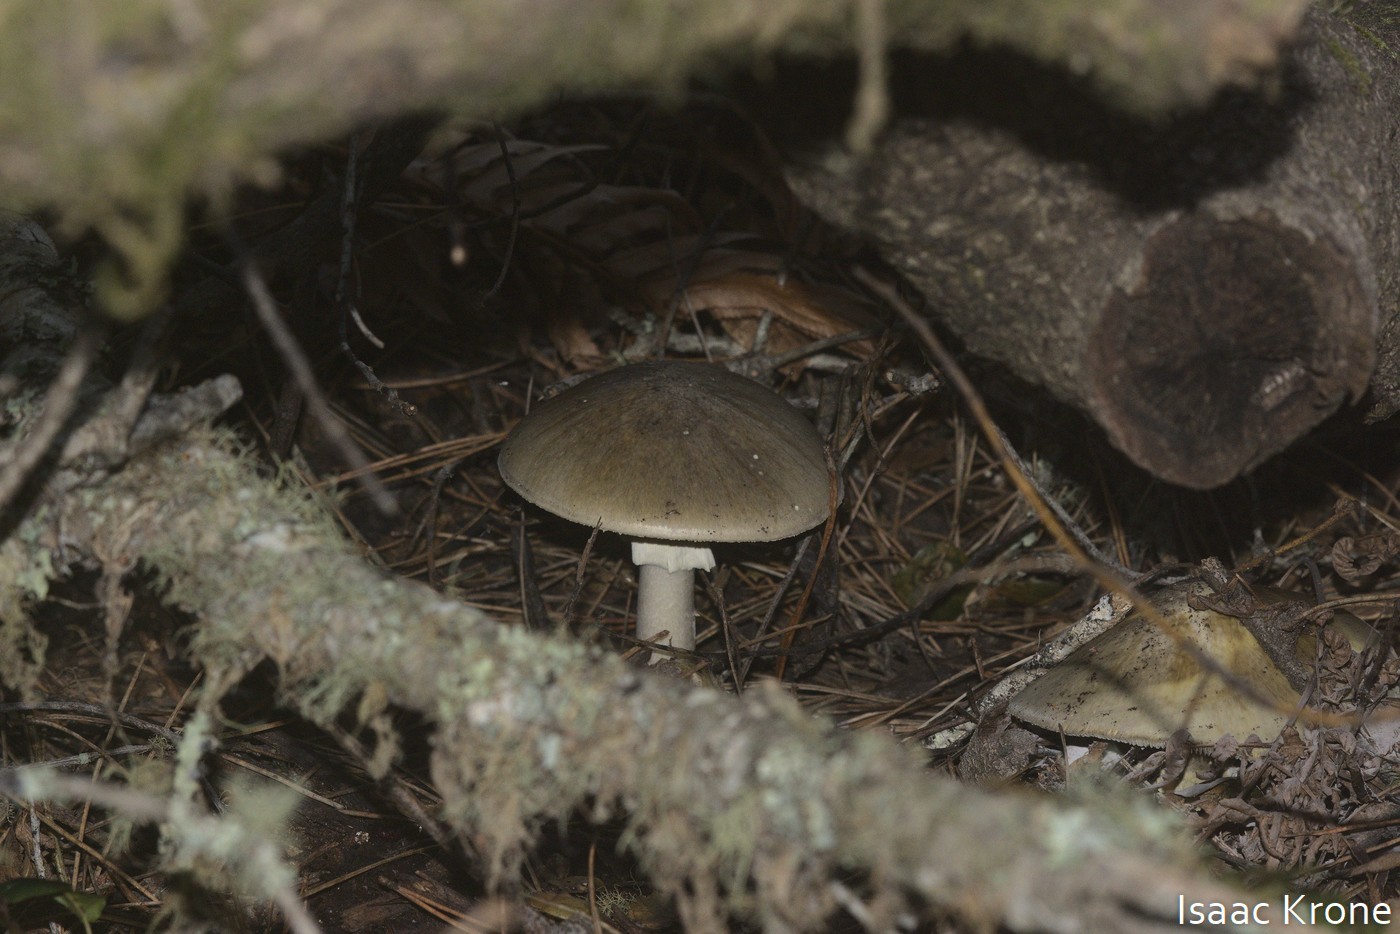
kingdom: Fungi
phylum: Basidiomycota
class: Agaricomycetes
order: Agaricales
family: Amanitaceae
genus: Amanita
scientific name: Amanita phalloides
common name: Death cap
